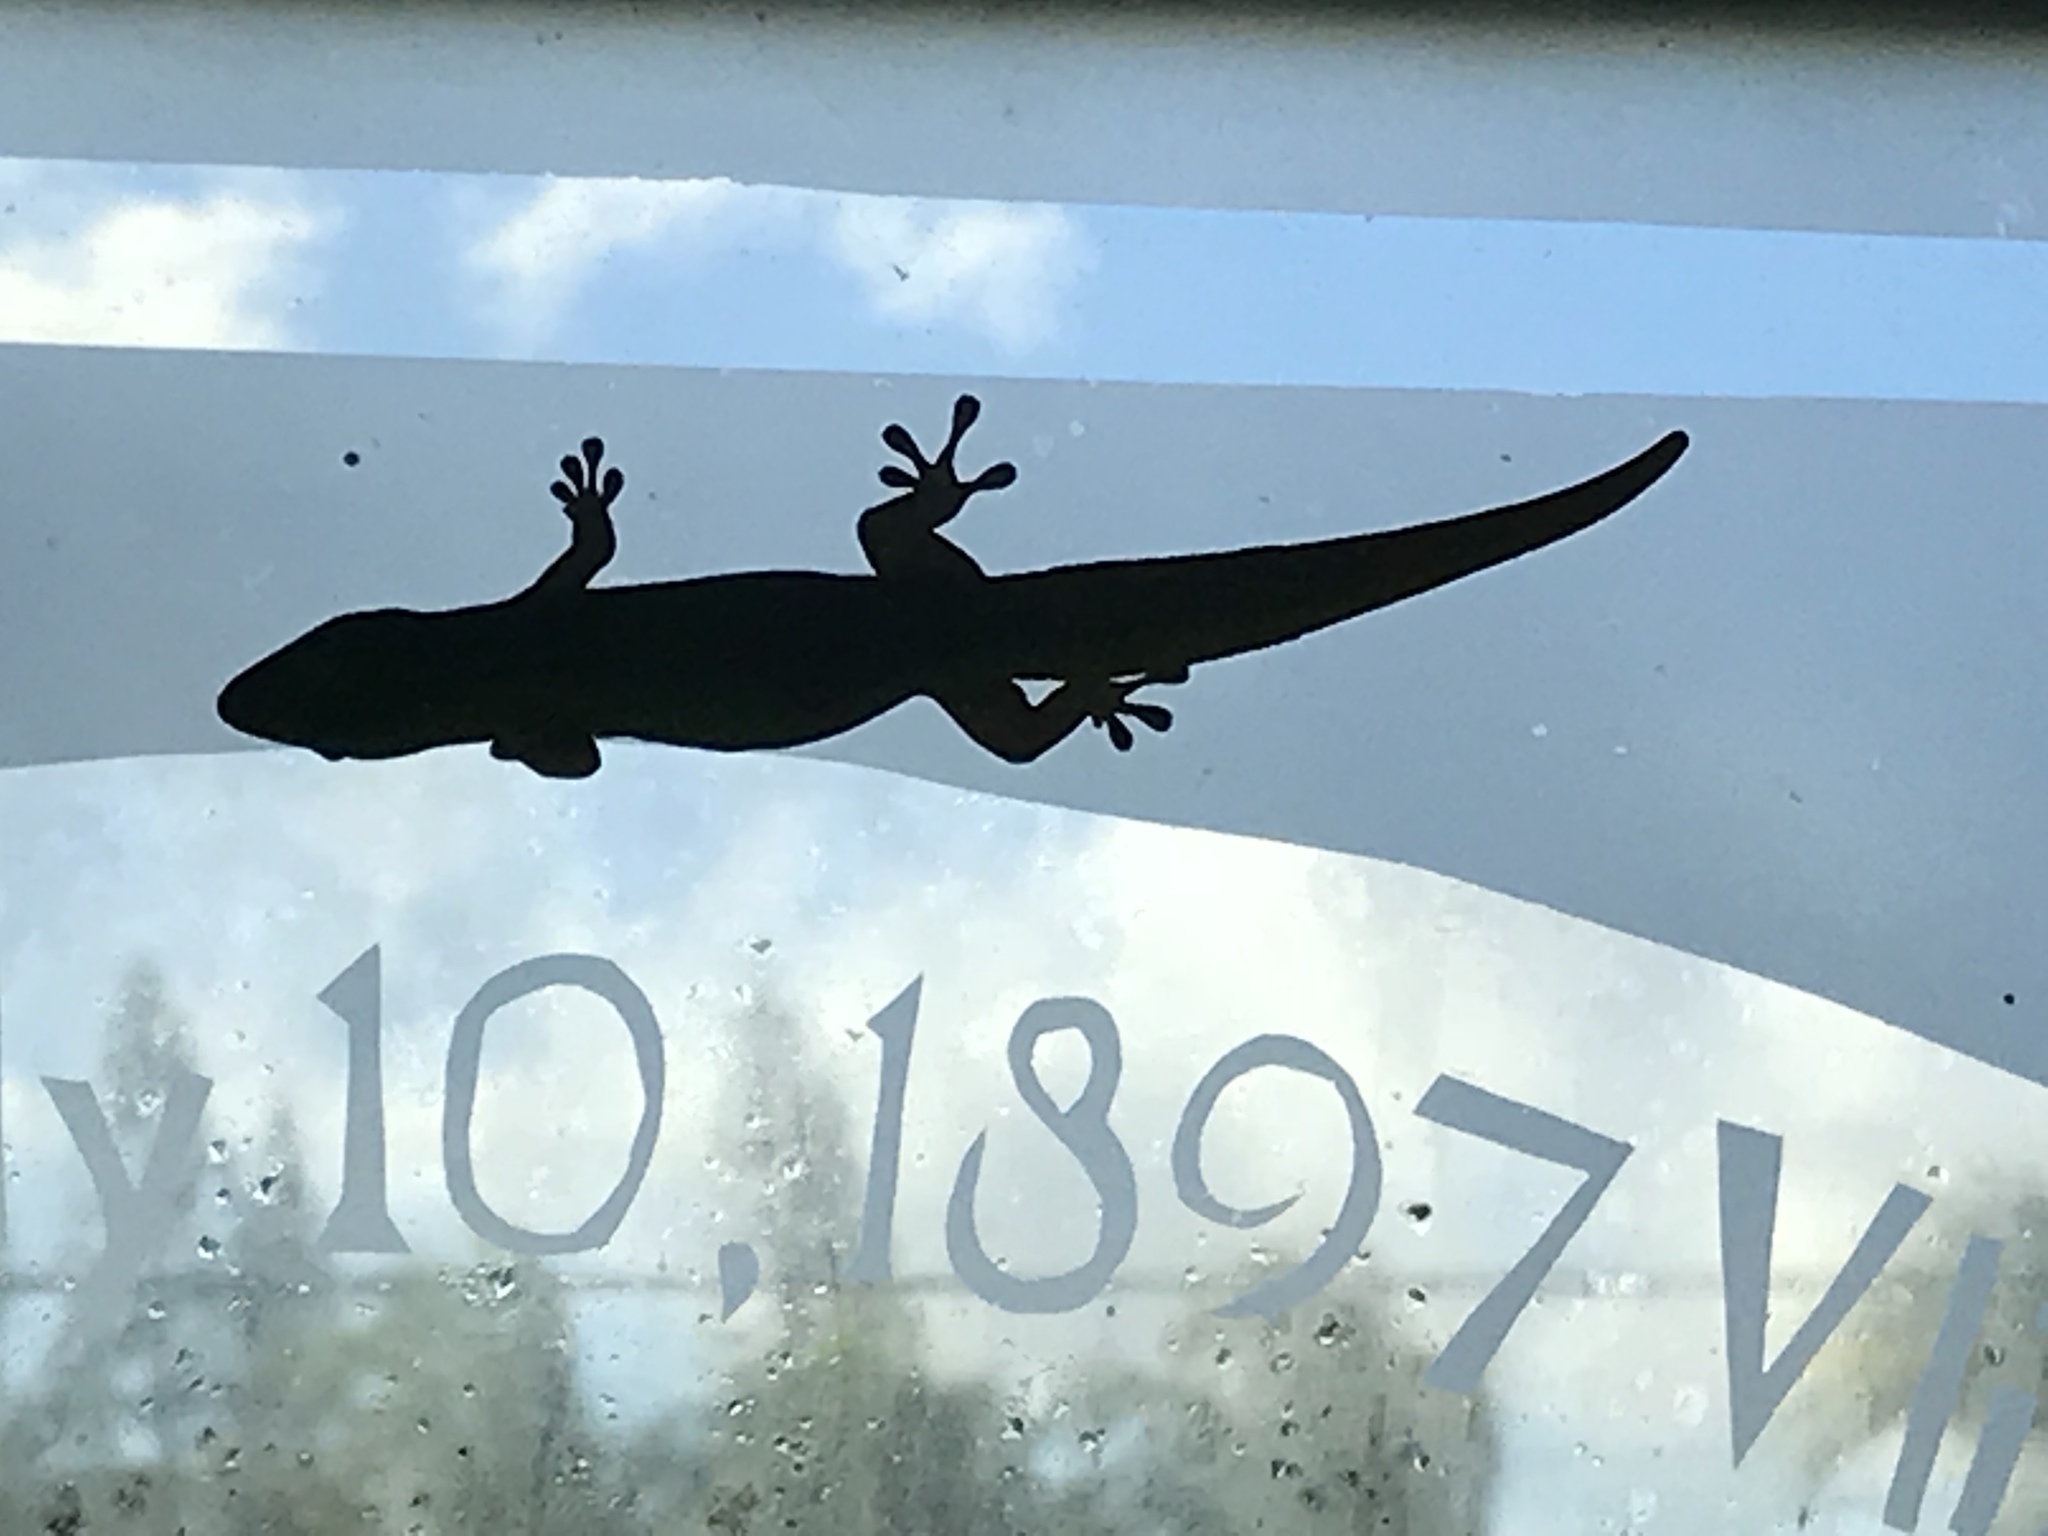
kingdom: Animalia
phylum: Chordata
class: Squamata
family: Gekkonidae
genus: Phelsuma
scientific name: Phelsuma laticauda
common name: Gold dust day gecko
